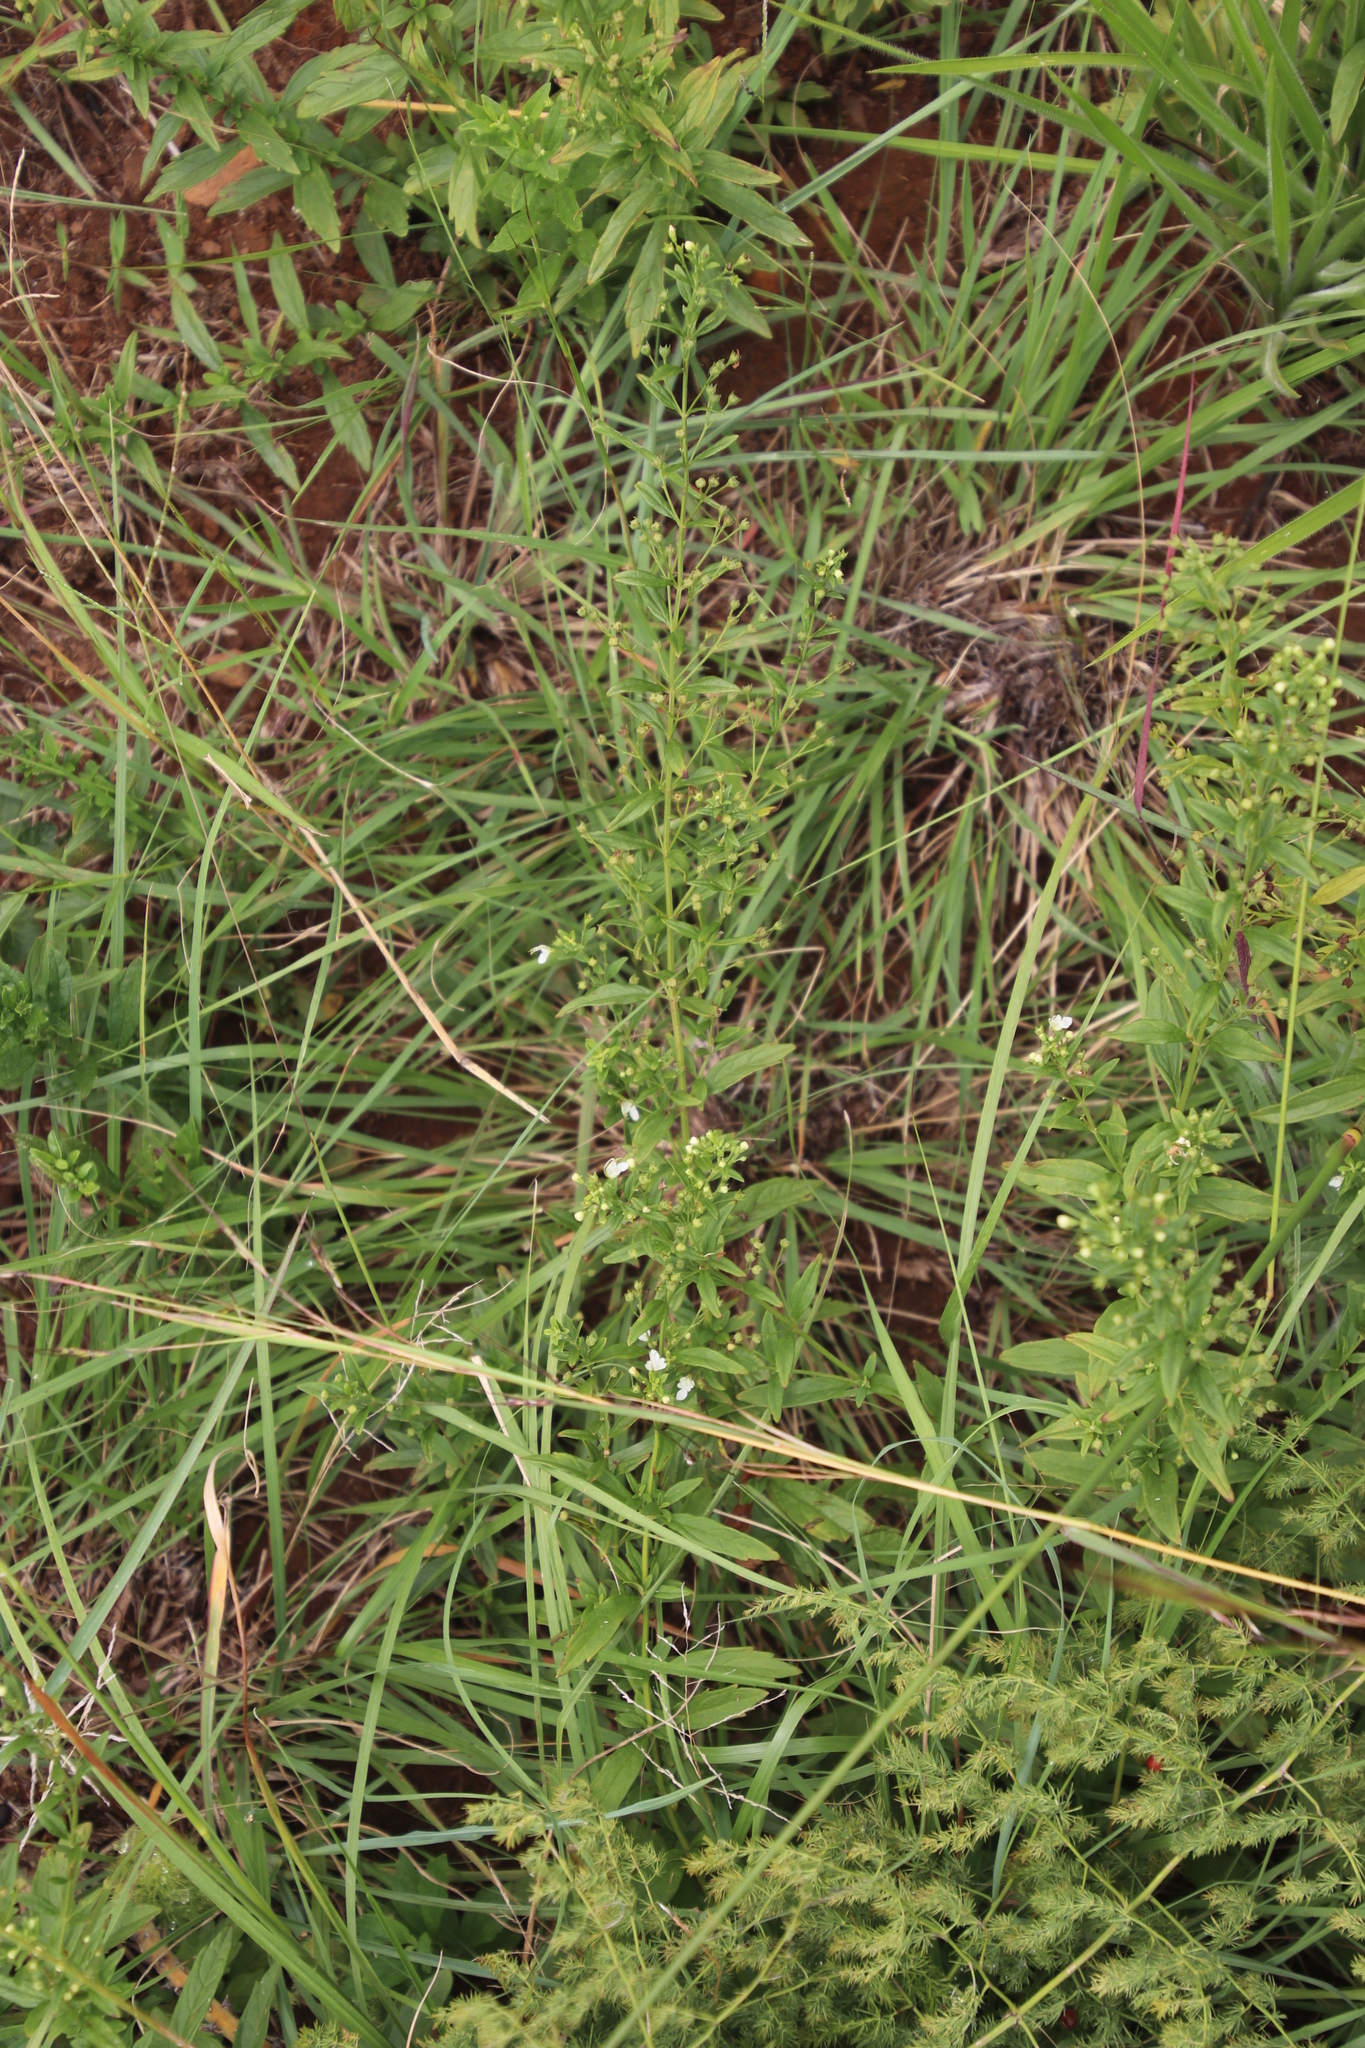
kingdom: Plantae
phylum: Tracheophyta
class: Magnoliopsida
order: Lamiales
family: Lamiaceae
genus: Teucrium
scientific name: Teucrium kraussii
